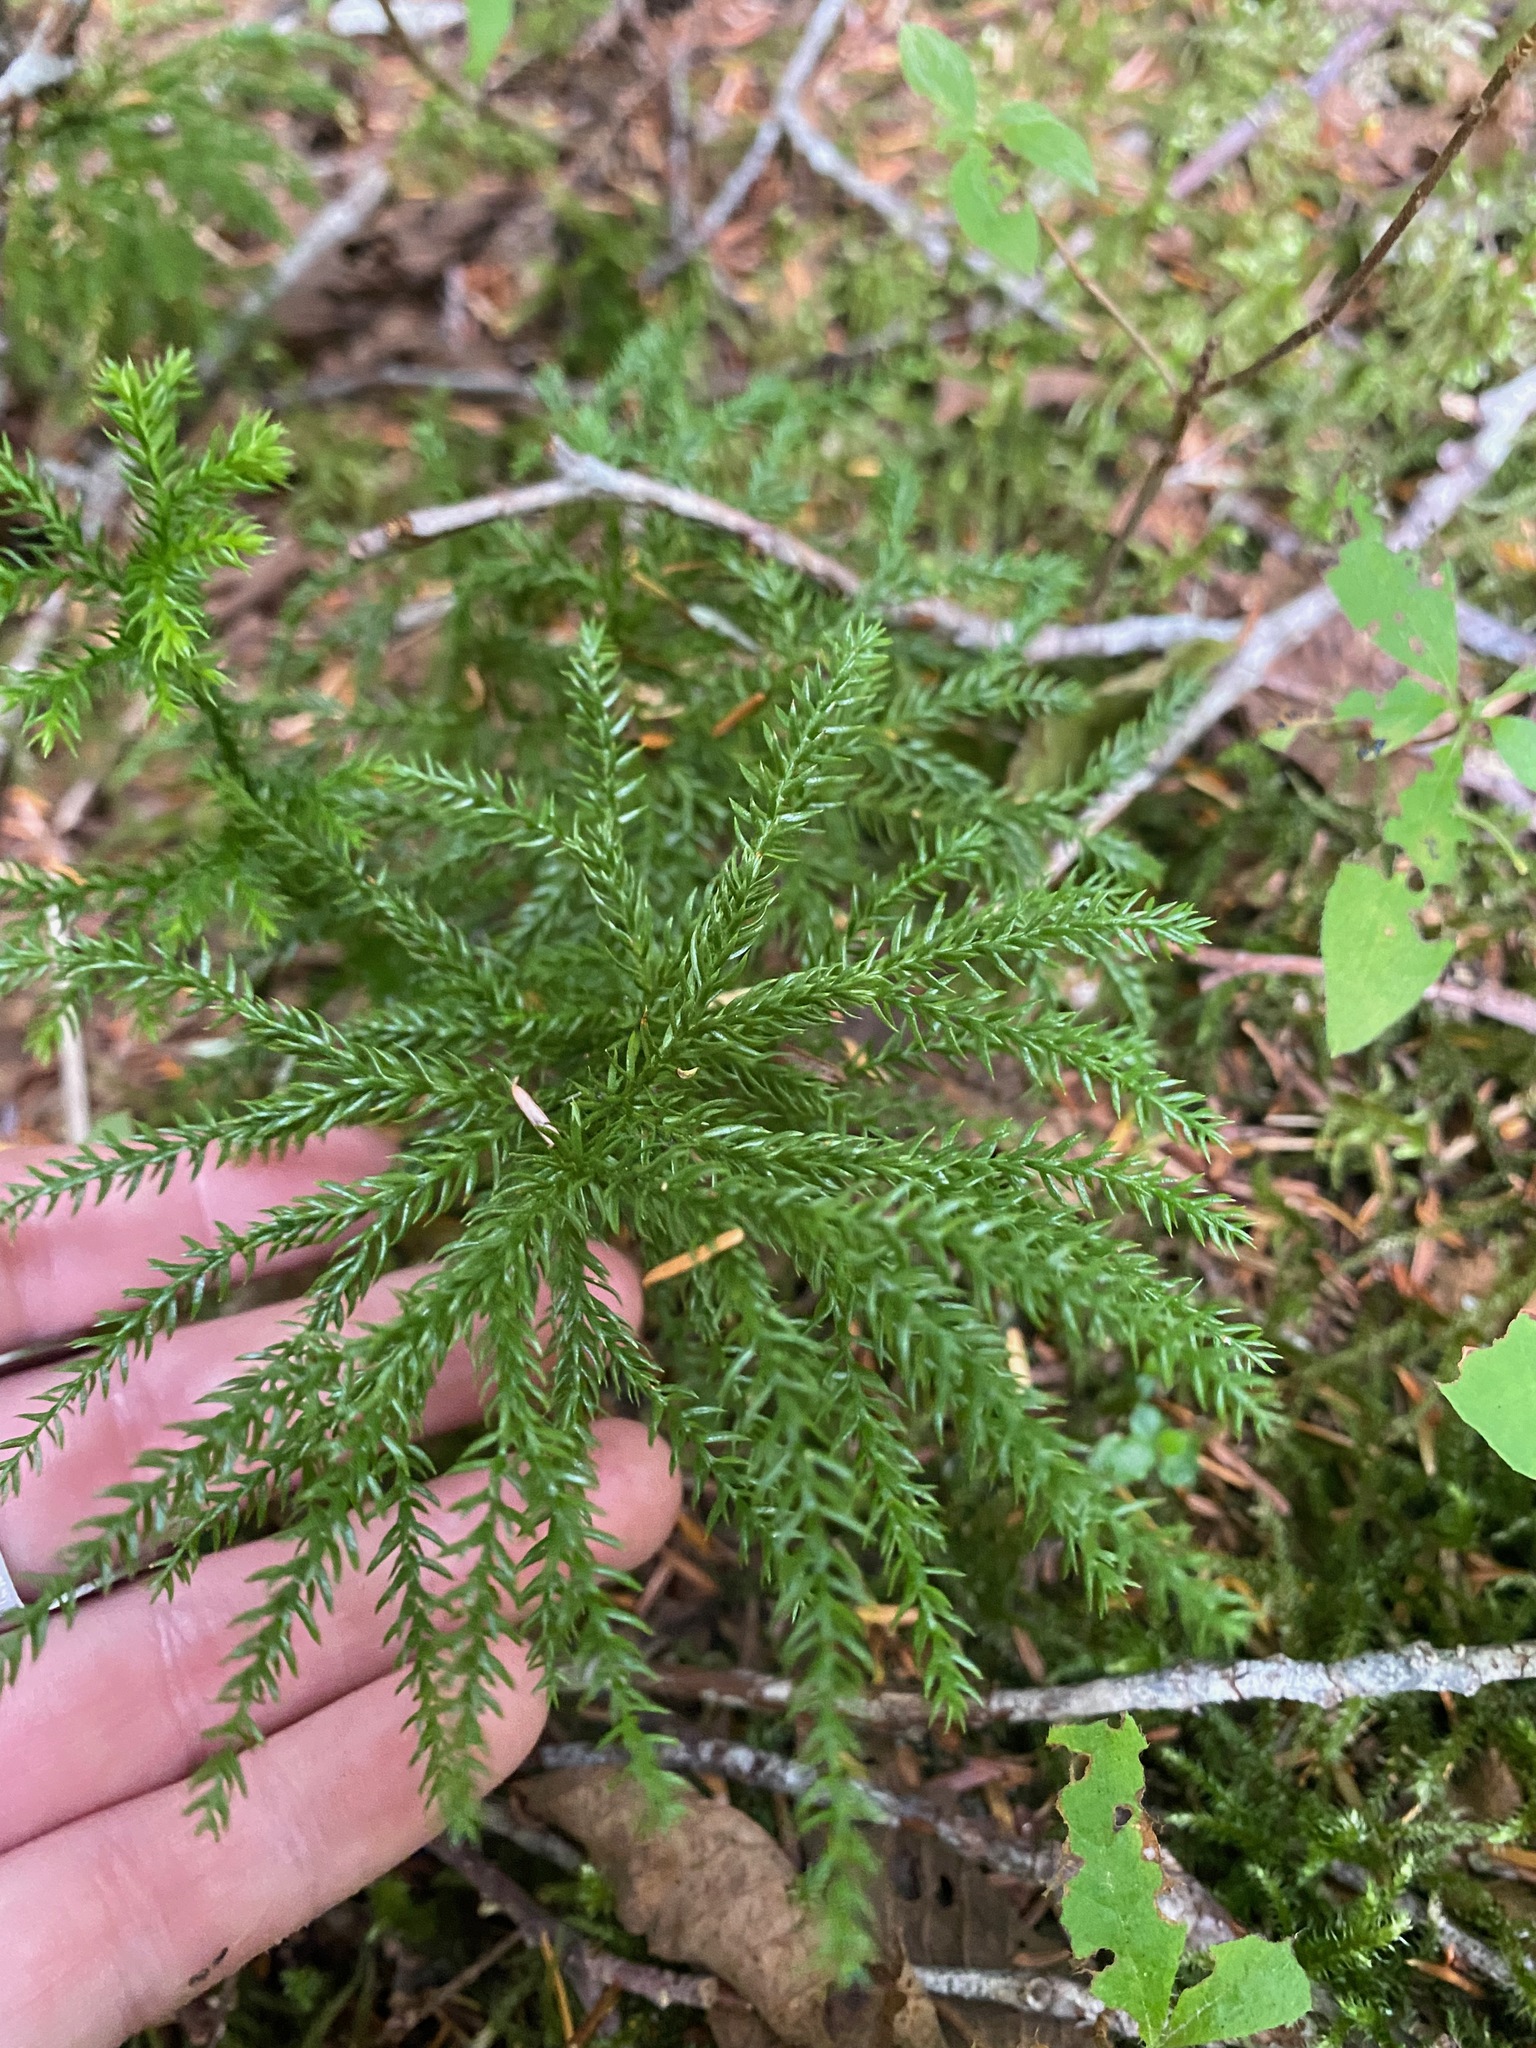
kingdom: Plantae
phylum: Tracheophyta
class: Lycopodiopsida
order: Lycopodiales
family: Lycopodiaceae
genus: Dendrolycopodium
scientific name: Dendrolycopodium dendroideum
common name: Northern tree-clubmoss
